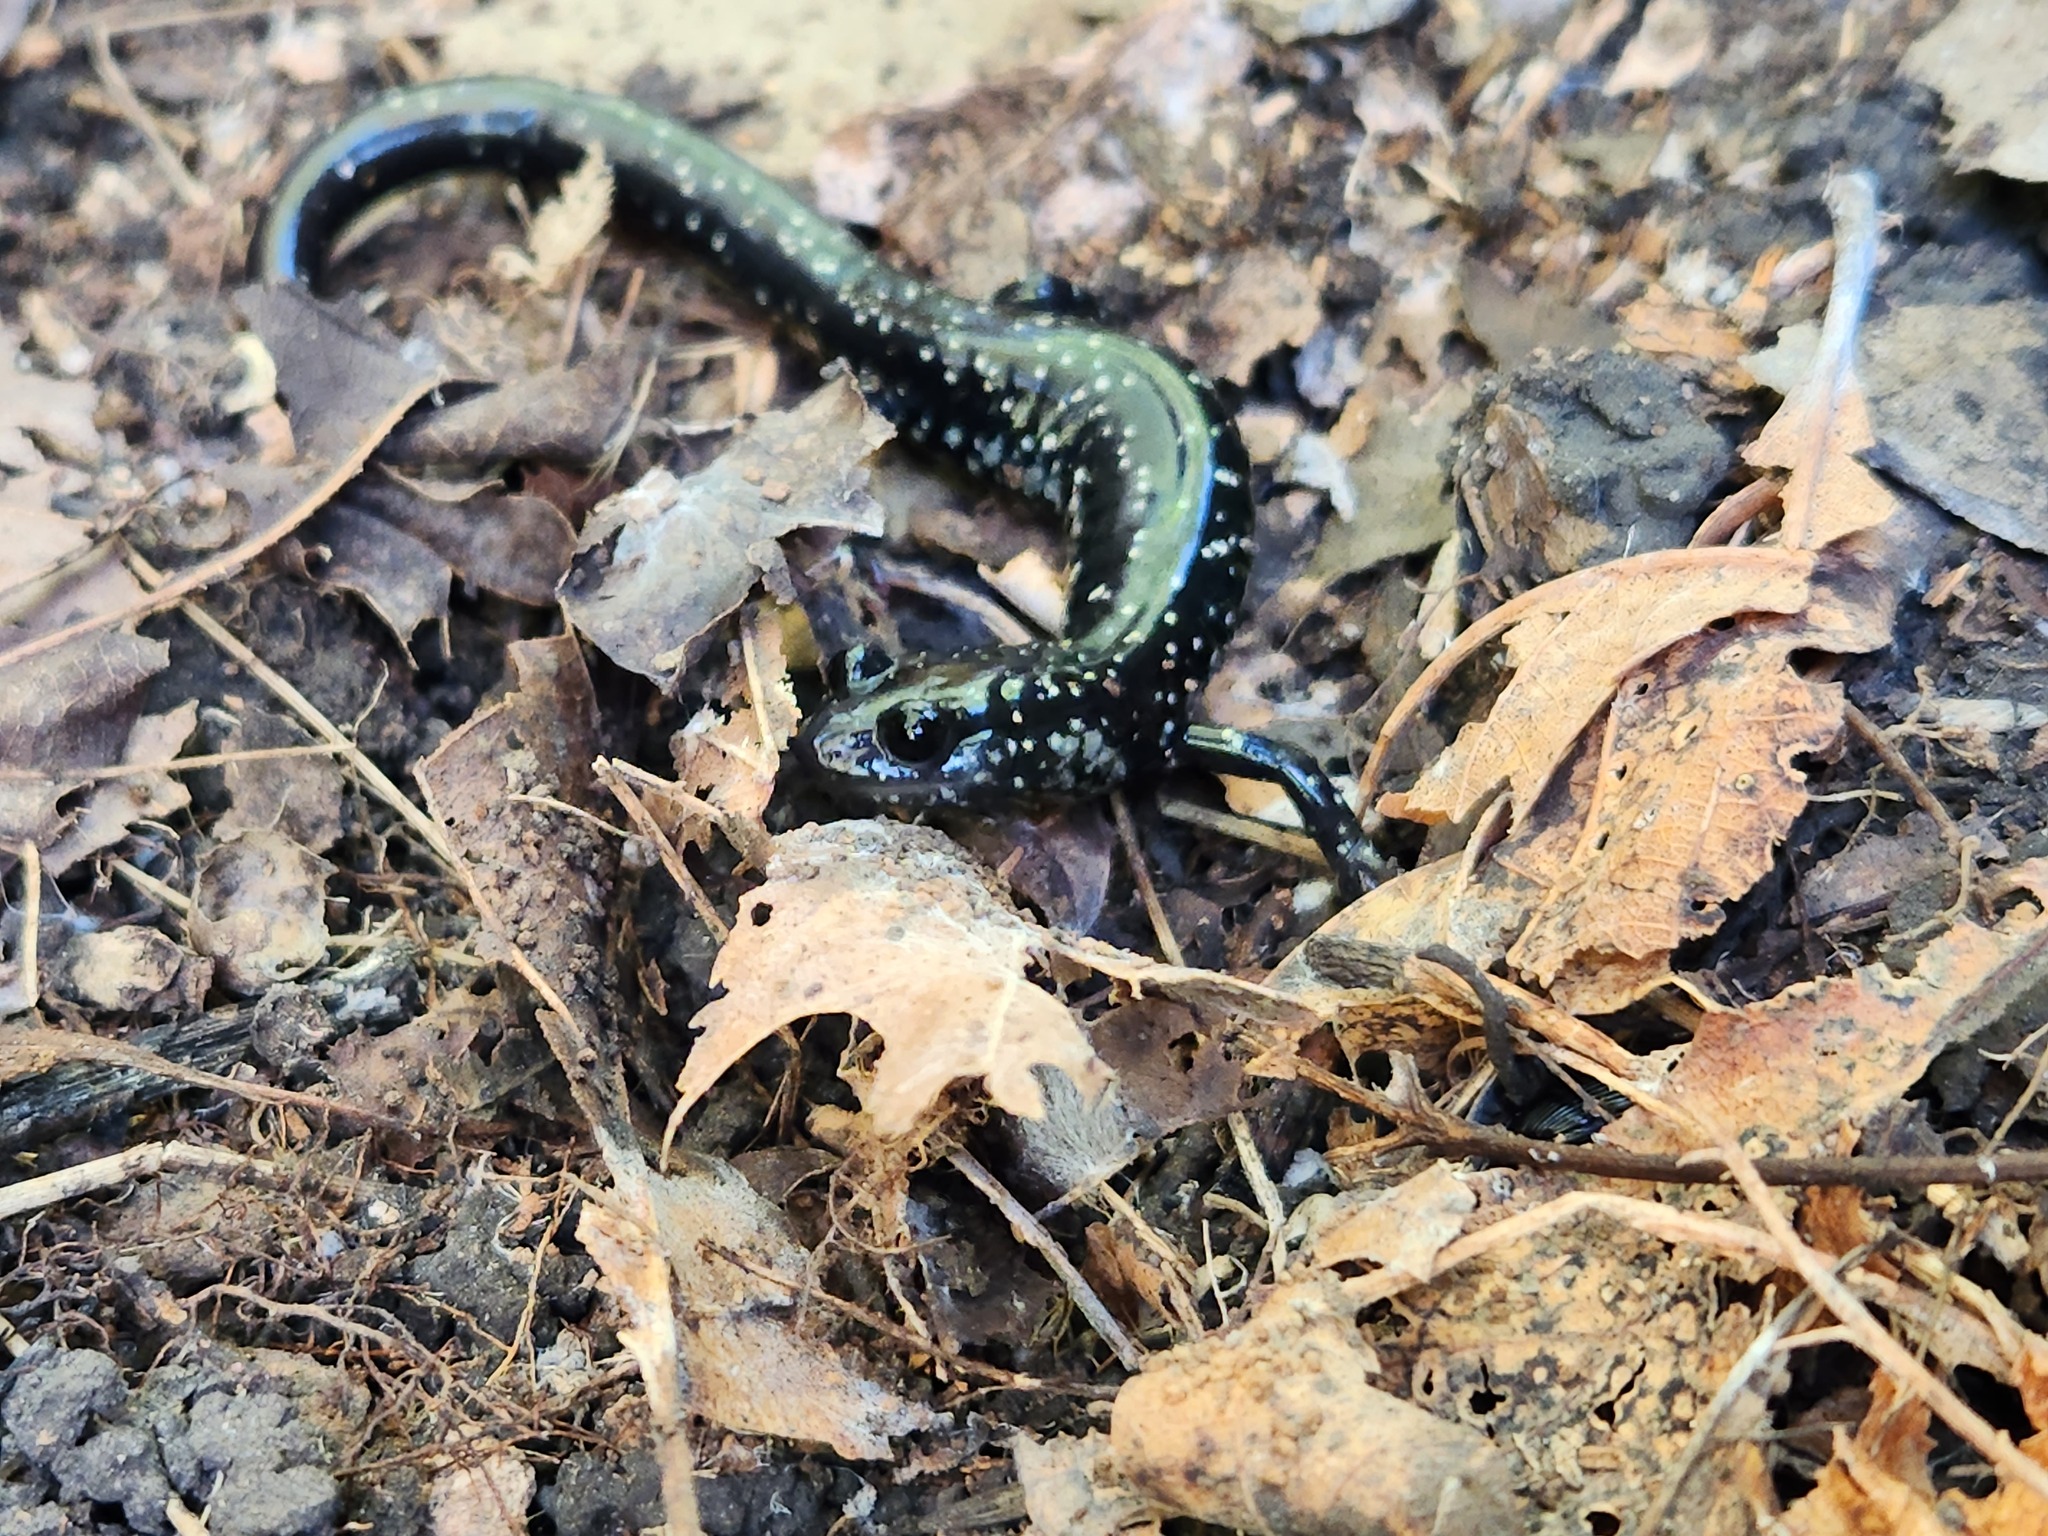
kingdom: Animalia
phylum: Chordata
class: Amphibia
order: Caudata
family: Plethodontidae
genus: Plethodon
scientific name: Plethodon glutinosus
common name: Northern slimy salamander
